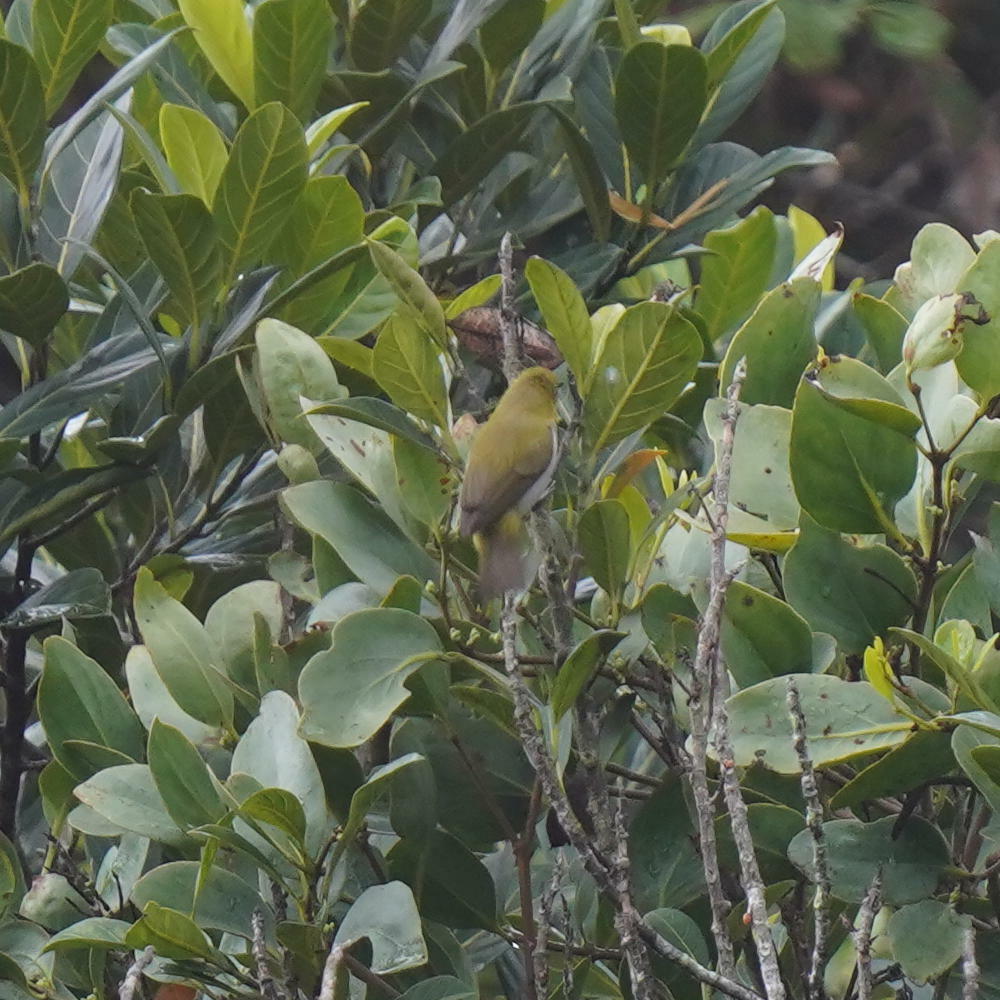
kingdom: Animalia
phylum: Chordata
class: Aves
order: Passeriformes
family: Zosteropidae
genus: Zosterops
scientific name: Zosterops palpebrosus
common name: Oriental white-eye
